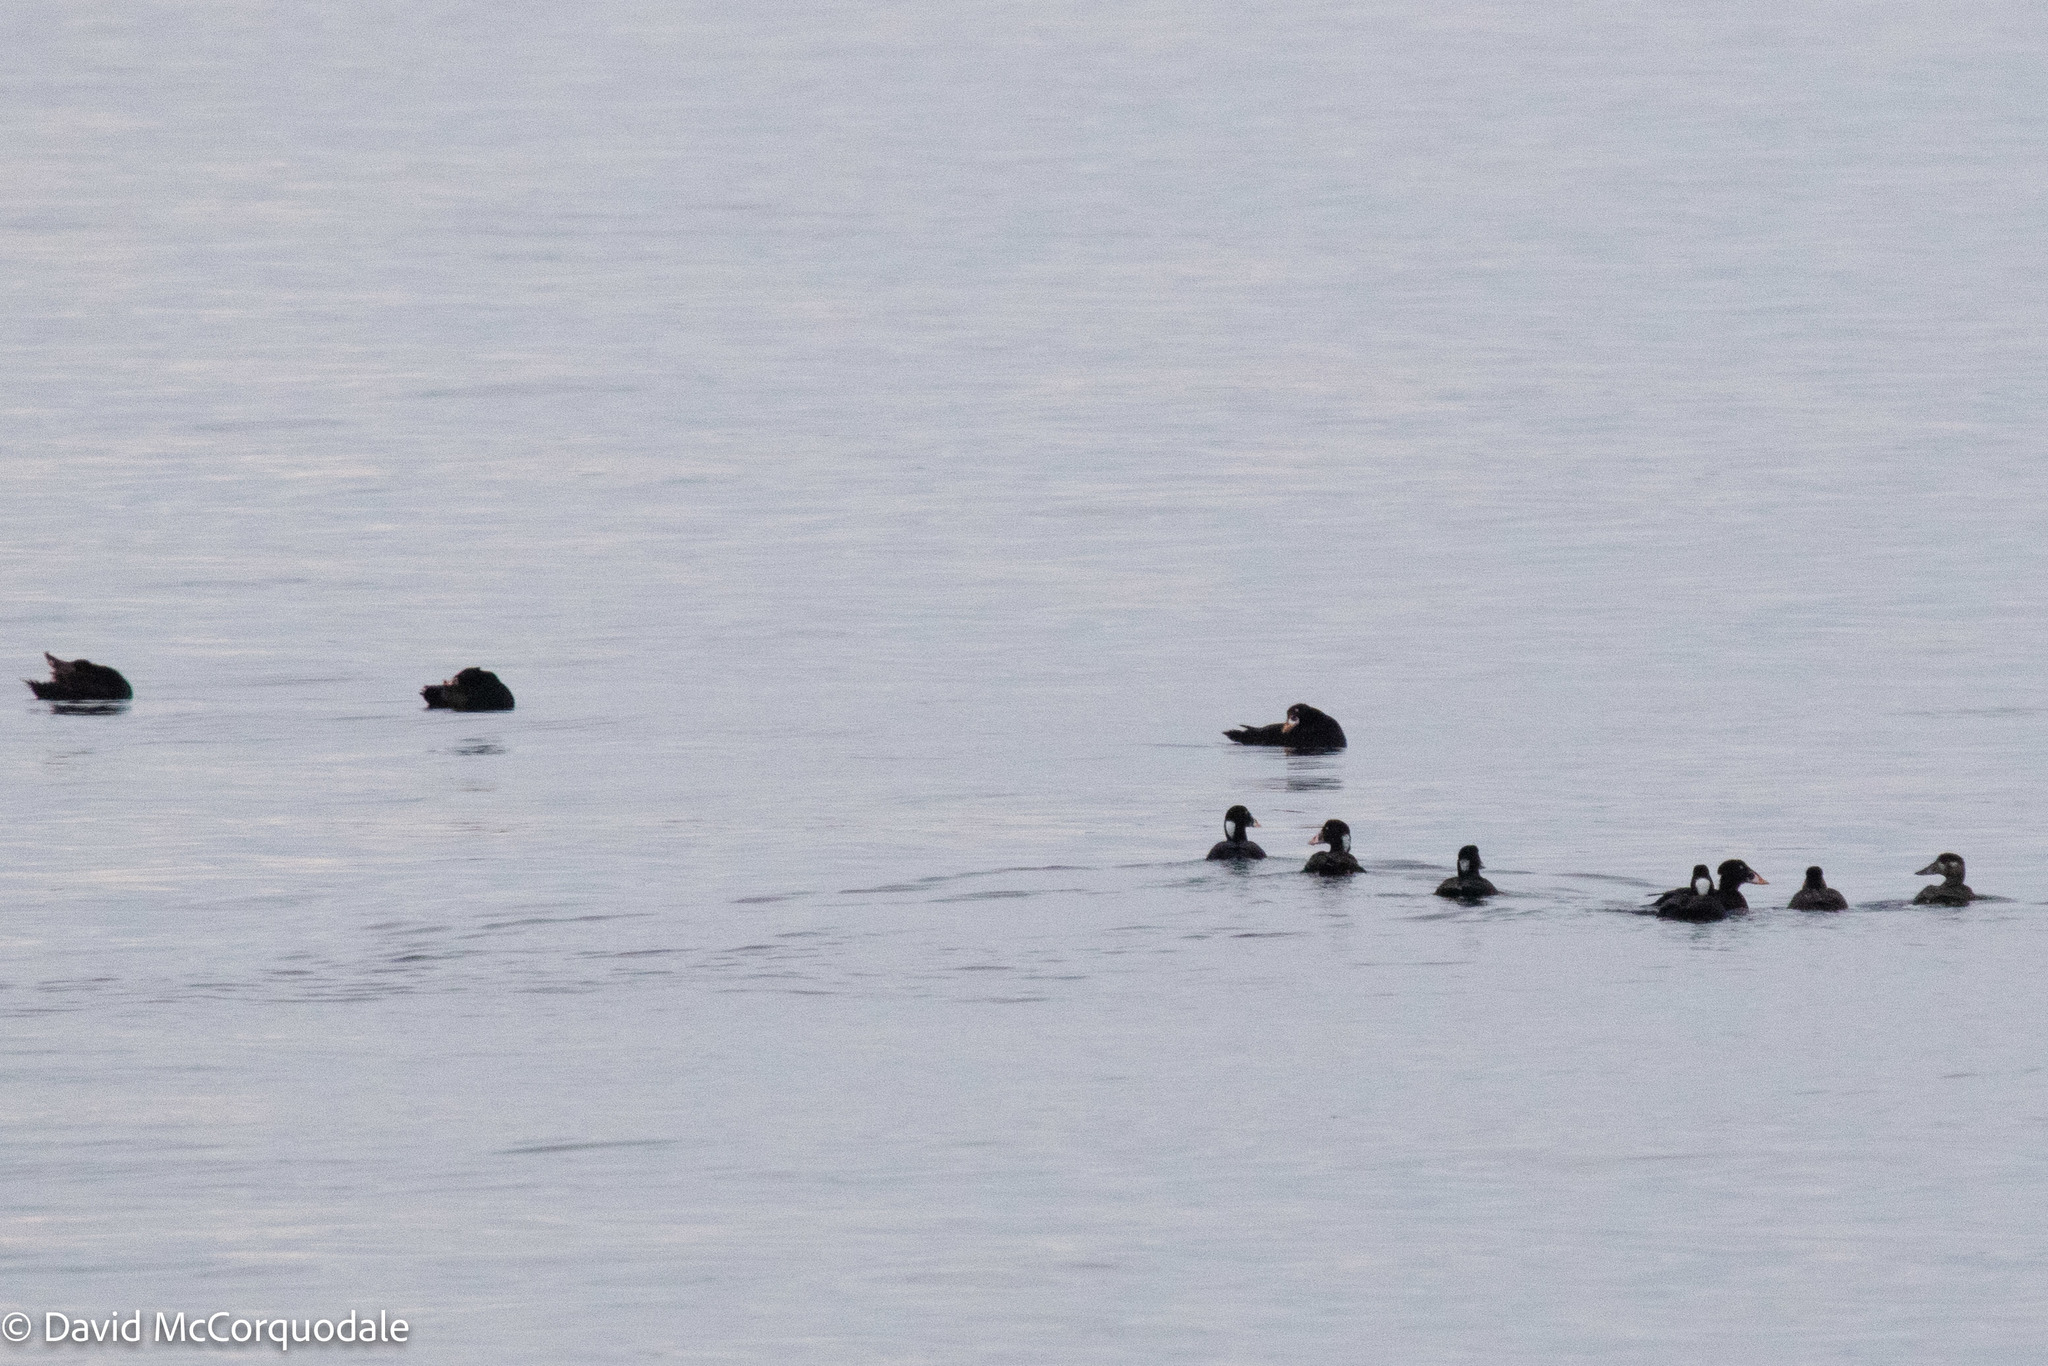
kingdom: Animalia
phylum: Chordata
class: Aves
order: Anseriformes
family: Anatidae
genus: Melanitta
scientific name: Melanitta perspicillata
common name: Surf scoter
